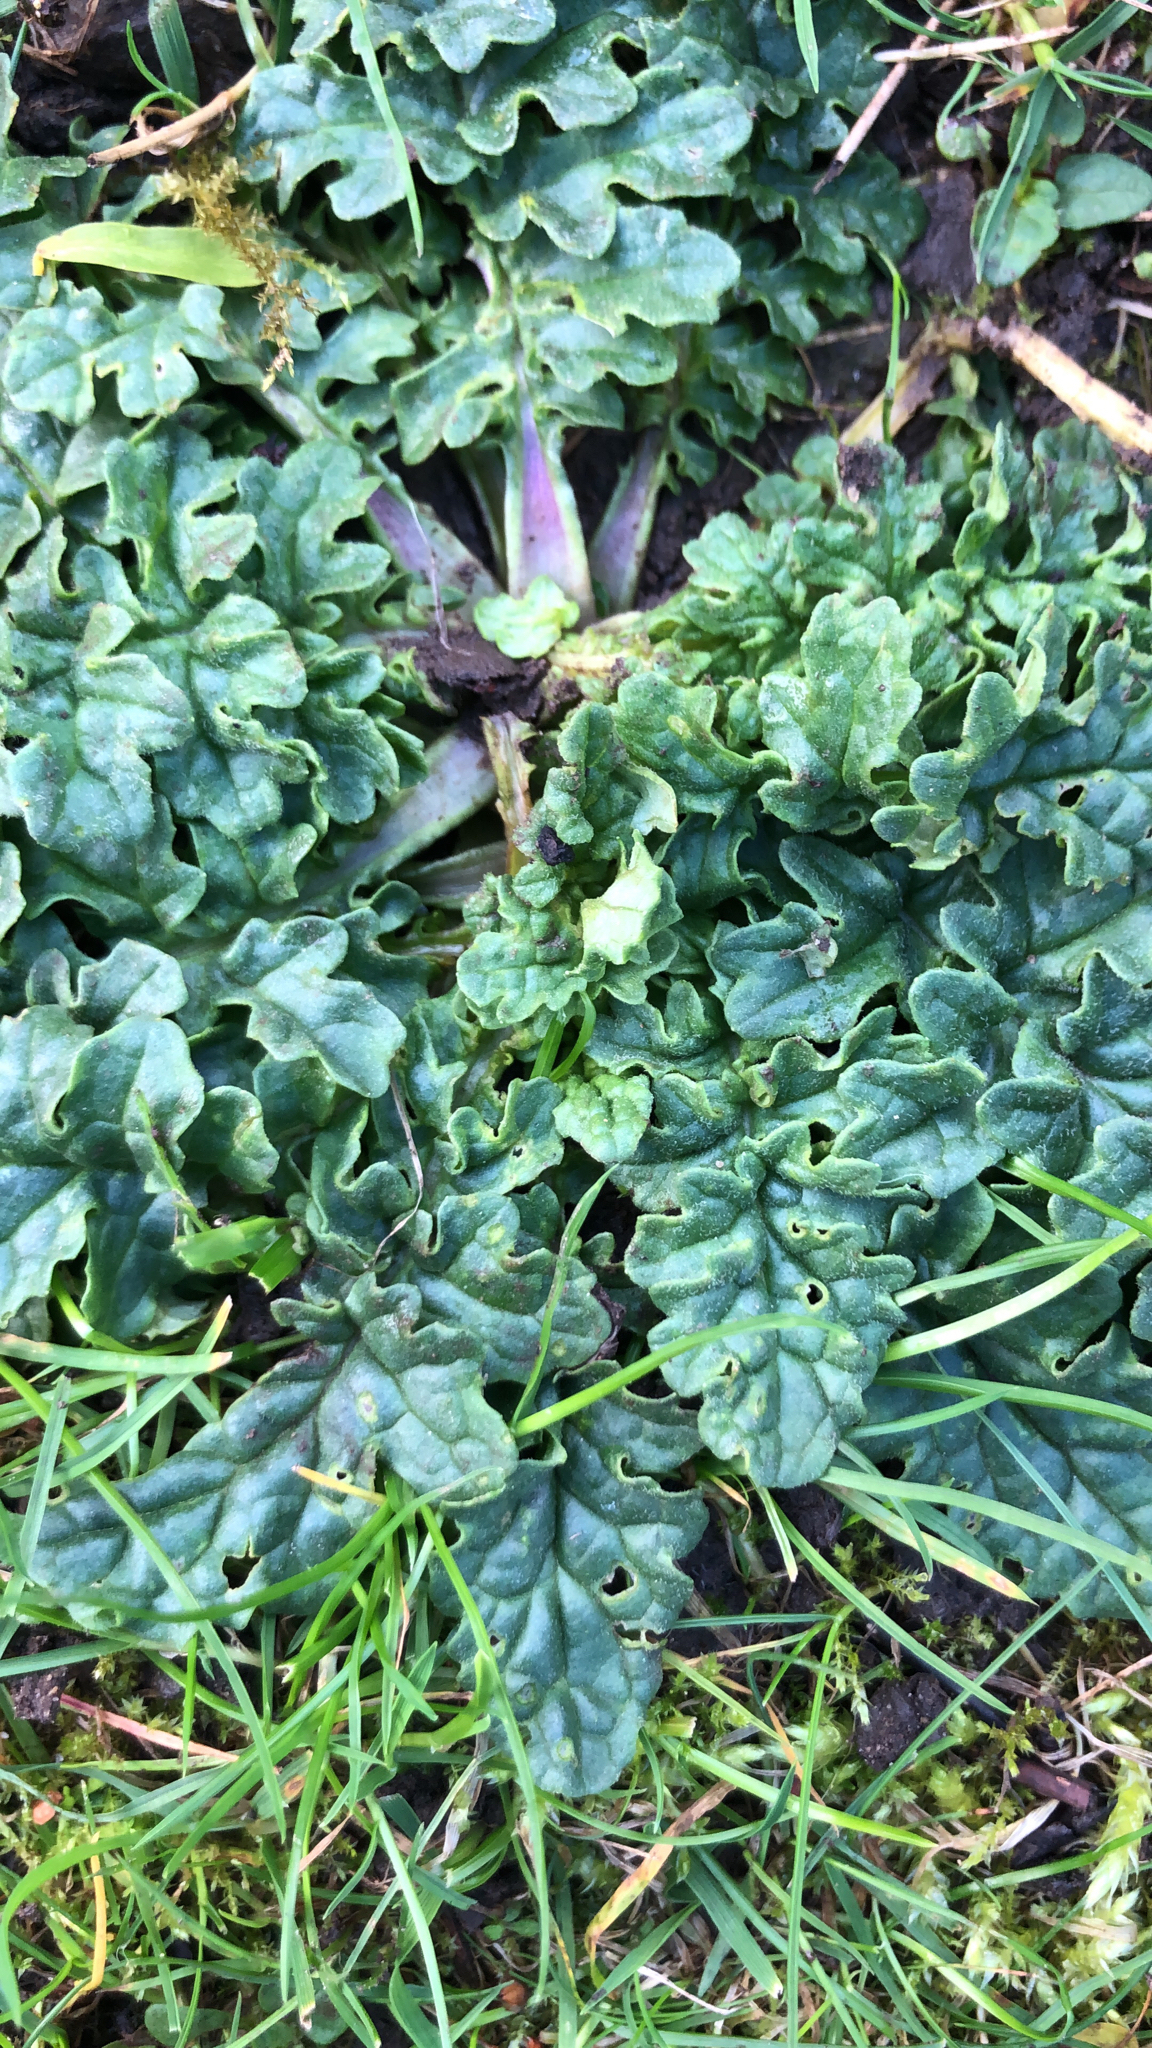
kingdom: Plantae
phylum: Tracheophyta
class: Magnoliopsida
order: Asterales
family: Asteraceae
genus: Jacobaea
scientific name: Jacobaea vulgaris
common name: Stinking willie
